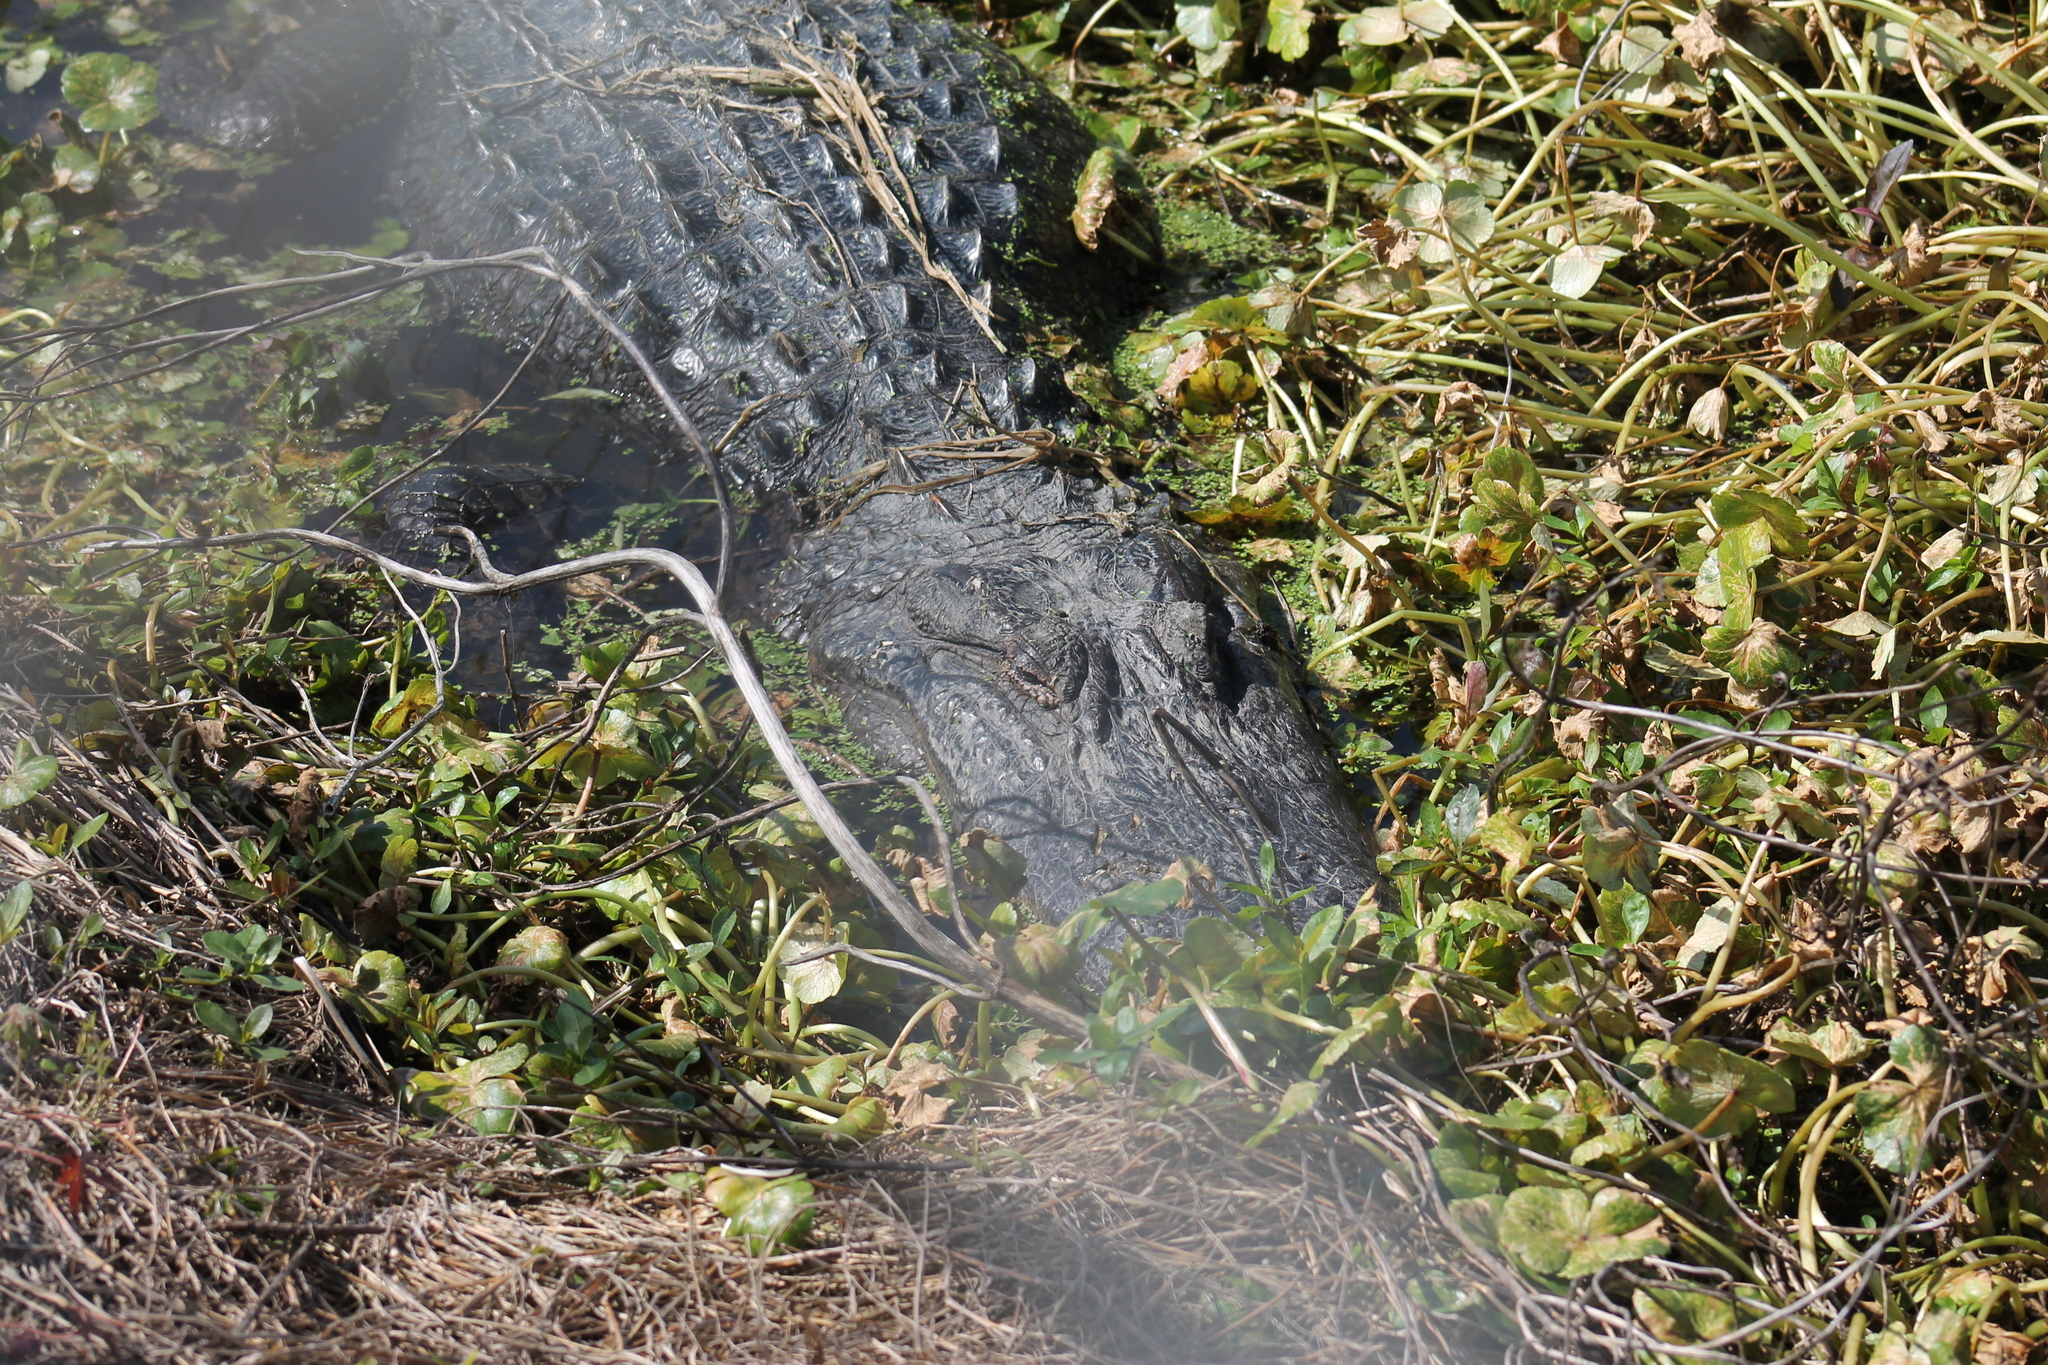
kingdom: Animalia
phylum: Chordata
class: Crocodylia
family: Alligatoridae
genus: Alligator
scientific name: Alligator mississippiensis
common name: American alligator
